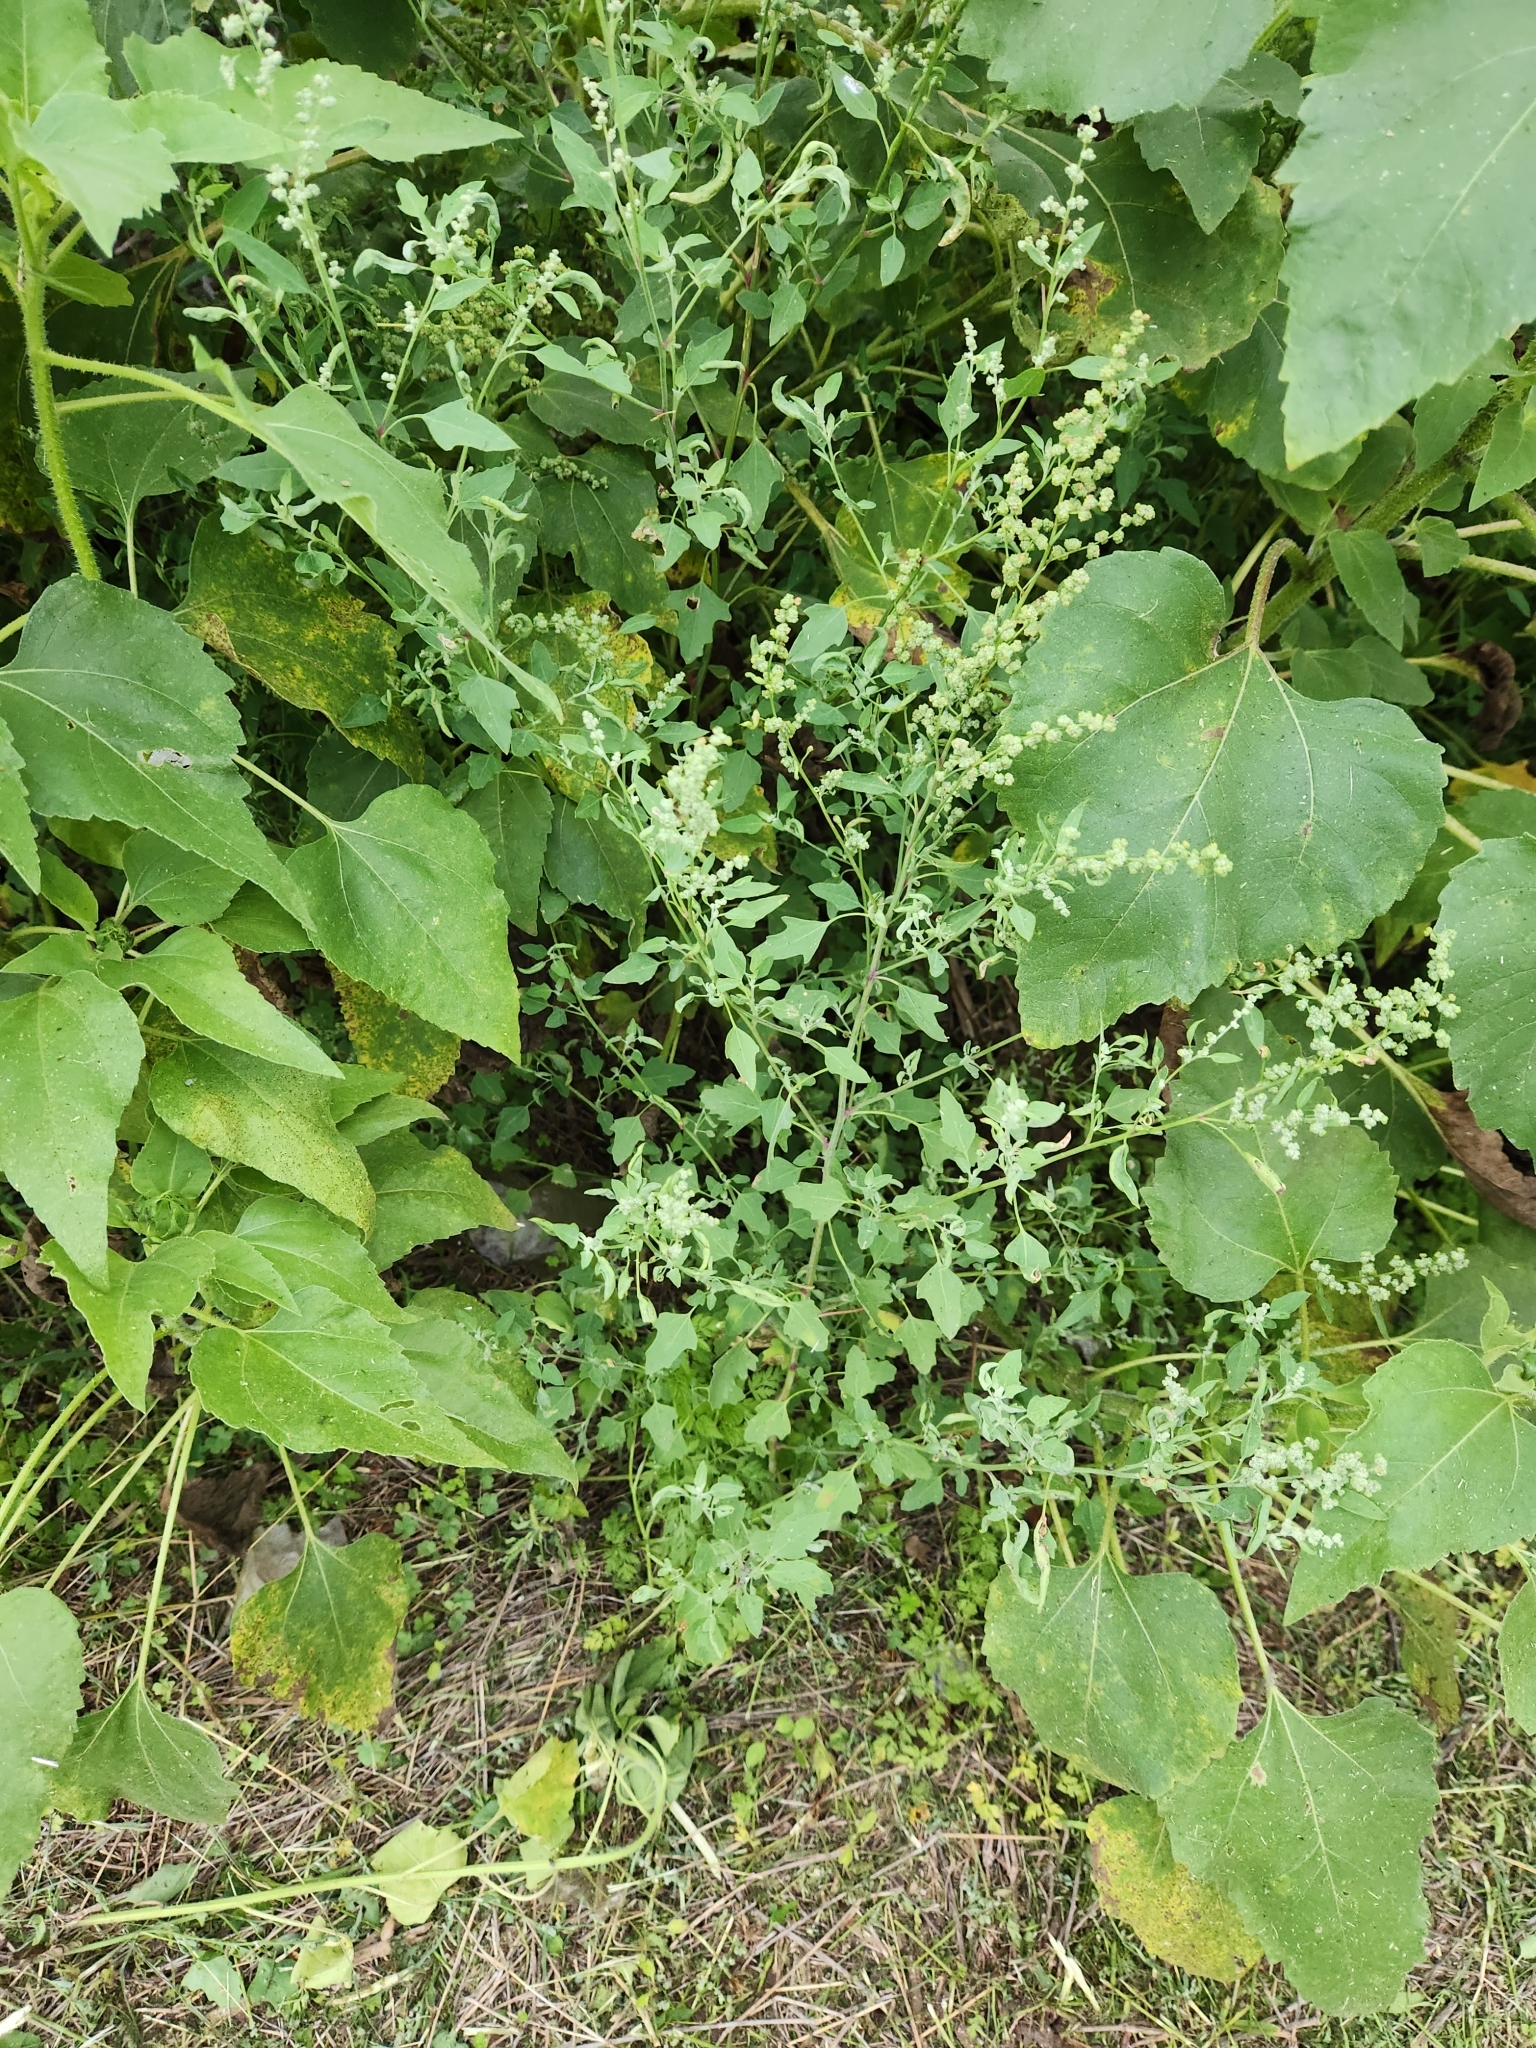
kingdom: Plantae
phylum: Tracheophyta
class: Magnoliopsida
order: Caryophyllales
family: Amaranthaceae
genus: Chenopodium
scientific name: Chenopodium album
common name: Fat-hen
